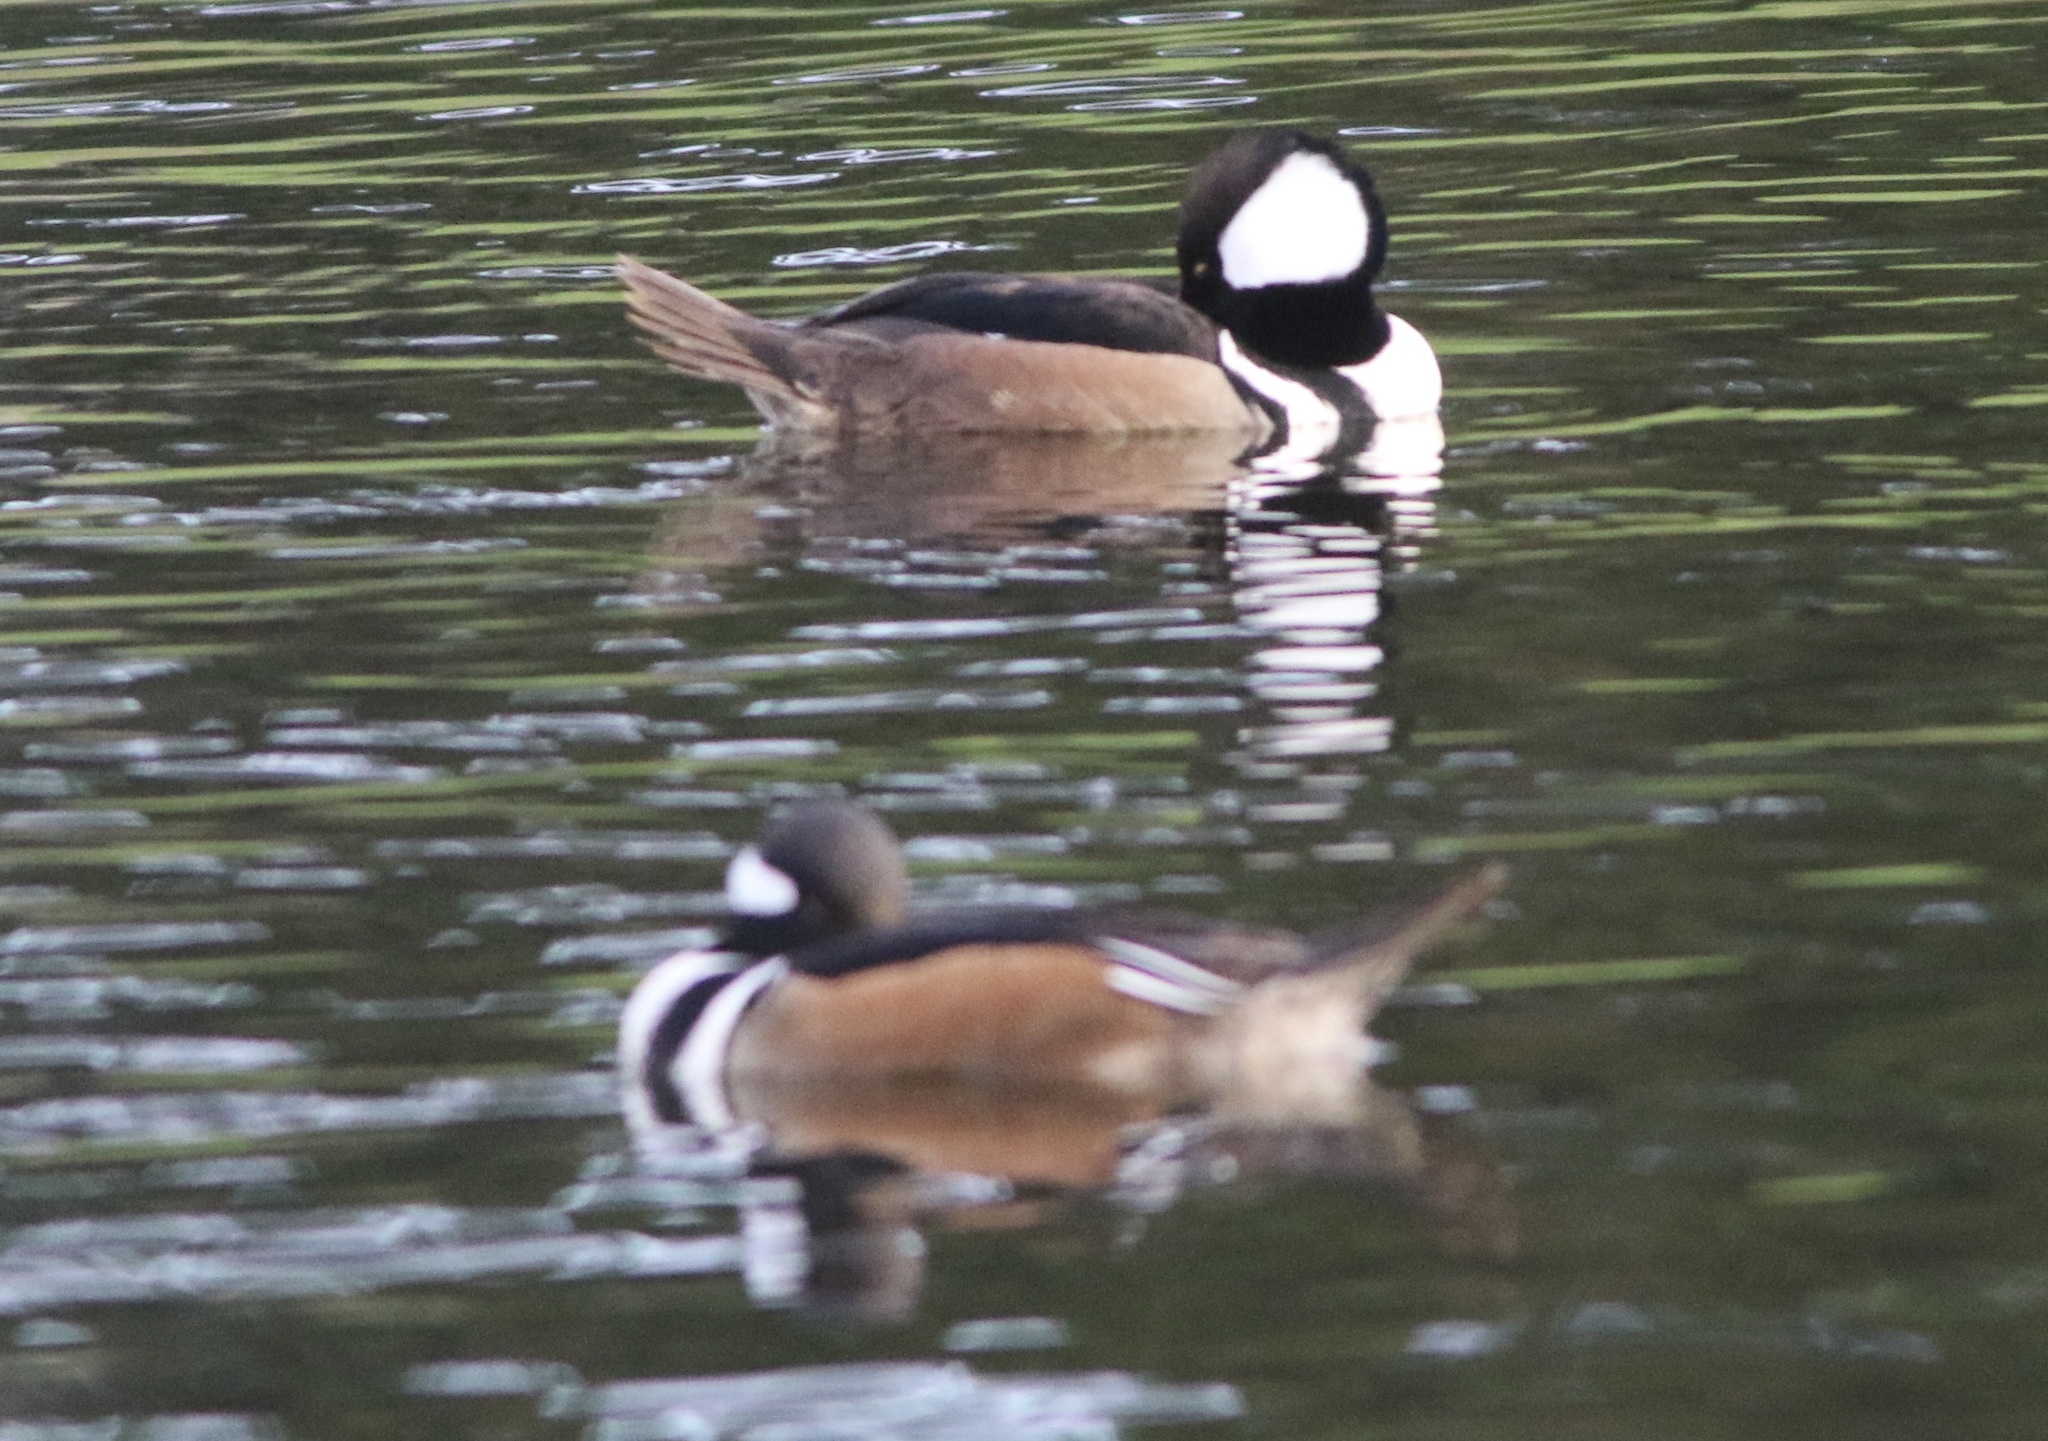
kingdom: Animalia
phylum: Chordata
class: Aves
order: Anseriformes
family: Anatidae
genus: Lophodytes
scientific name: Lophodytes cucullatus
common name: Hooded merganser
